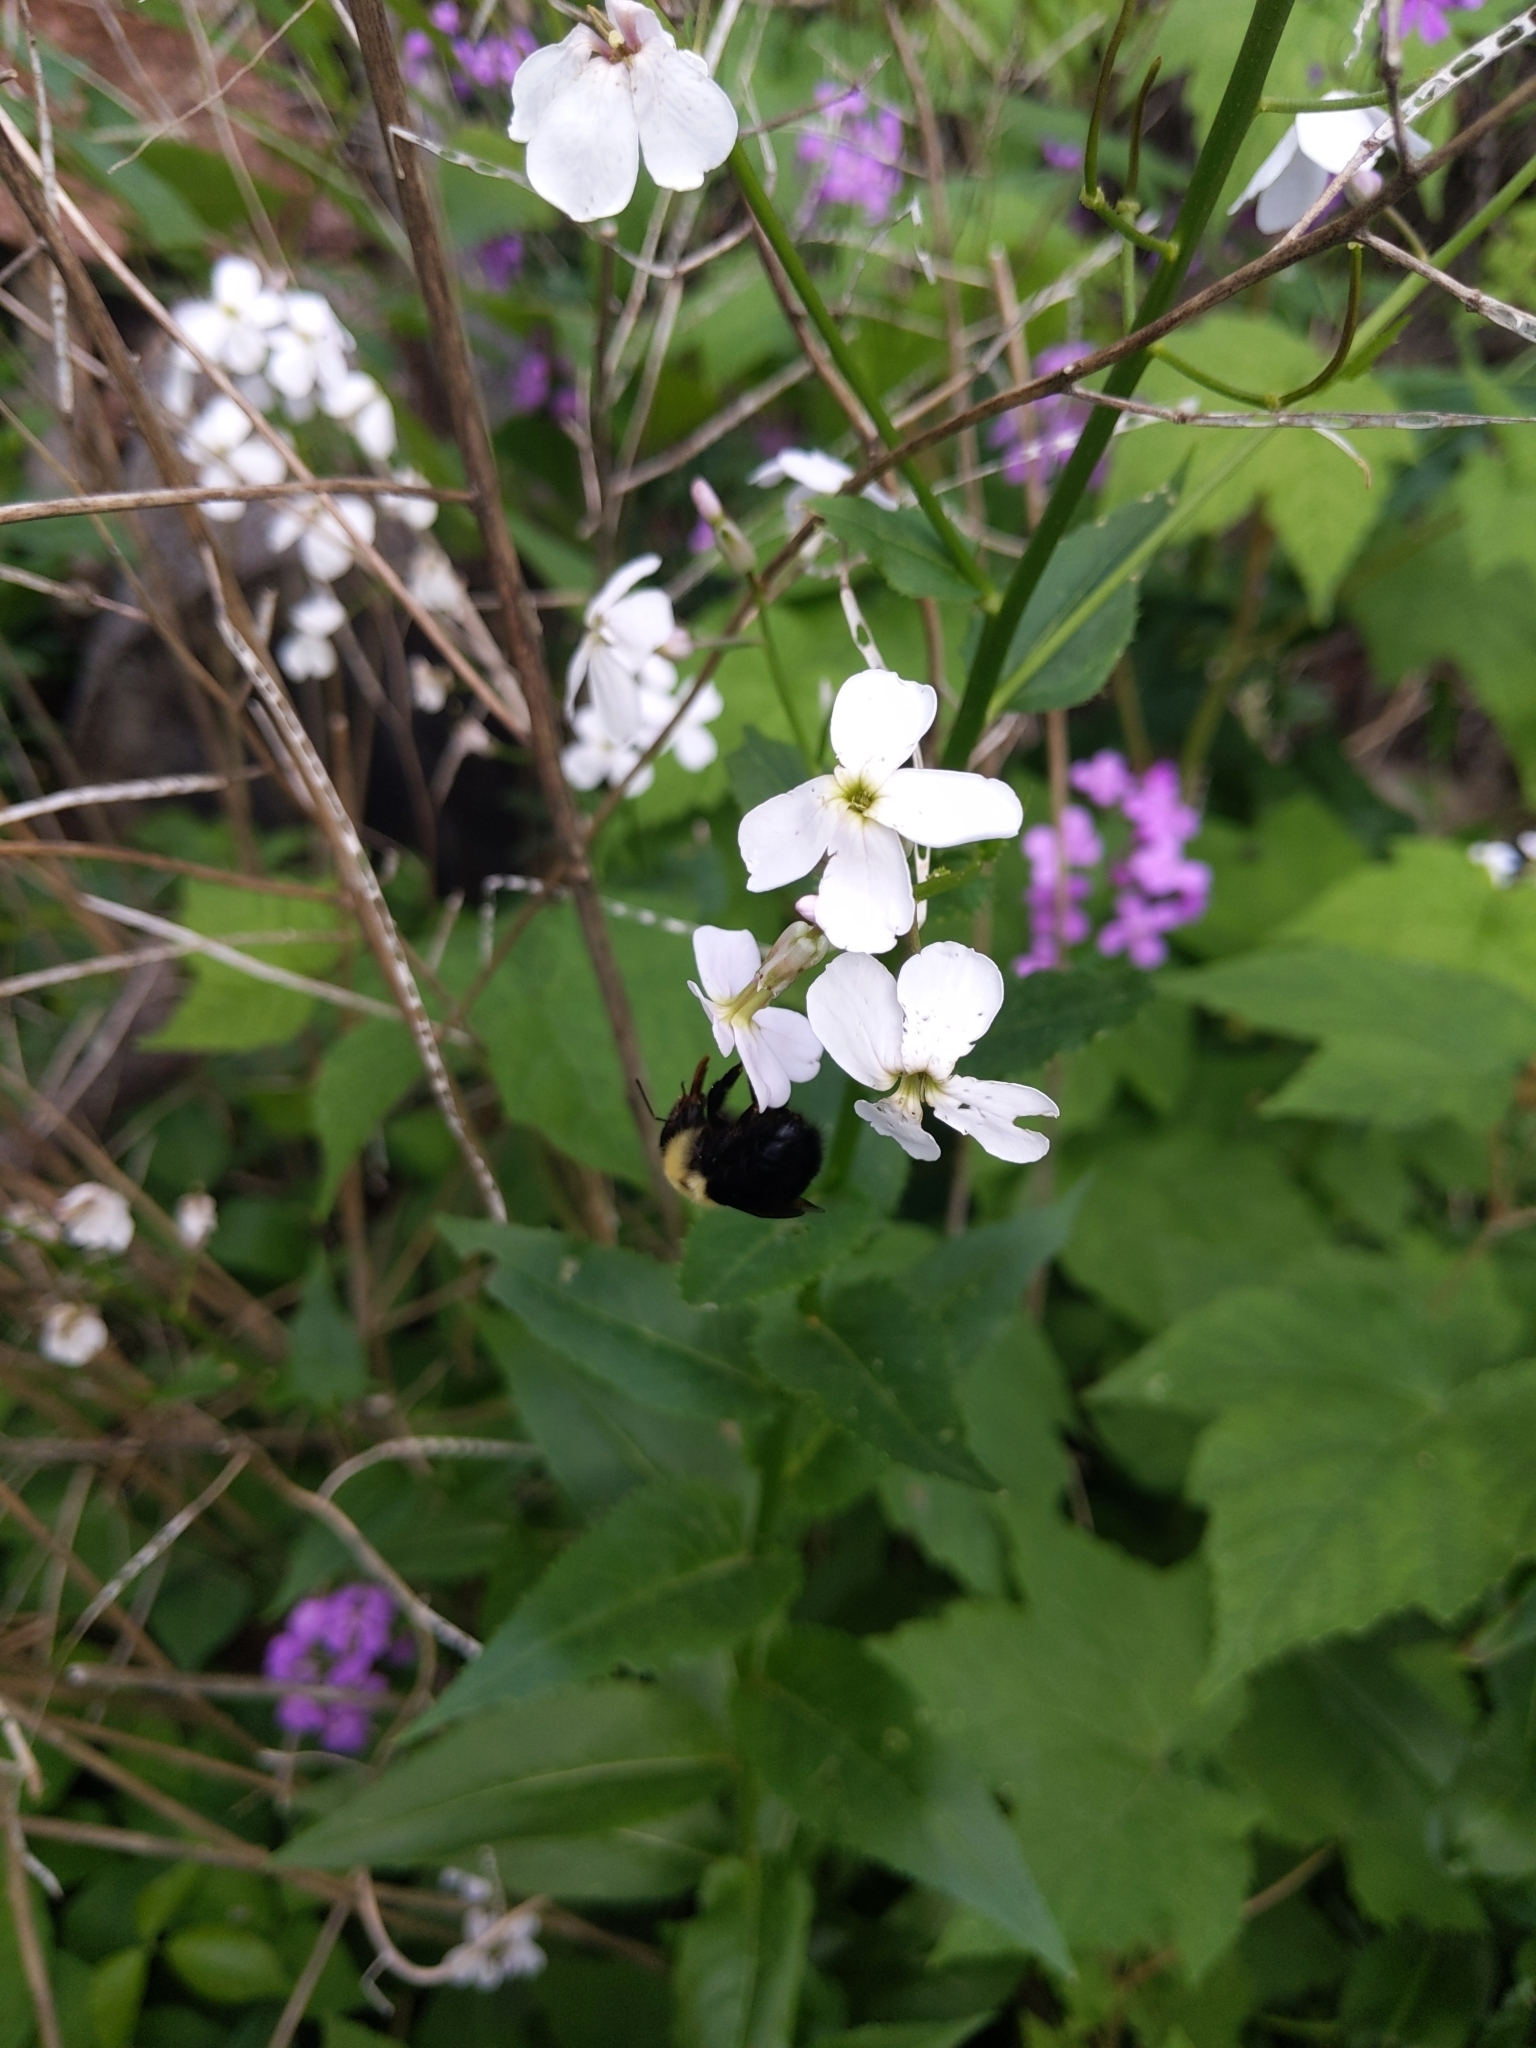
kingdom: Animalia
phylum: Arthropoda
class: Insecta
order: Hymenoptera
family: Apidae
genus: Bombus
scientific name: Bombus
